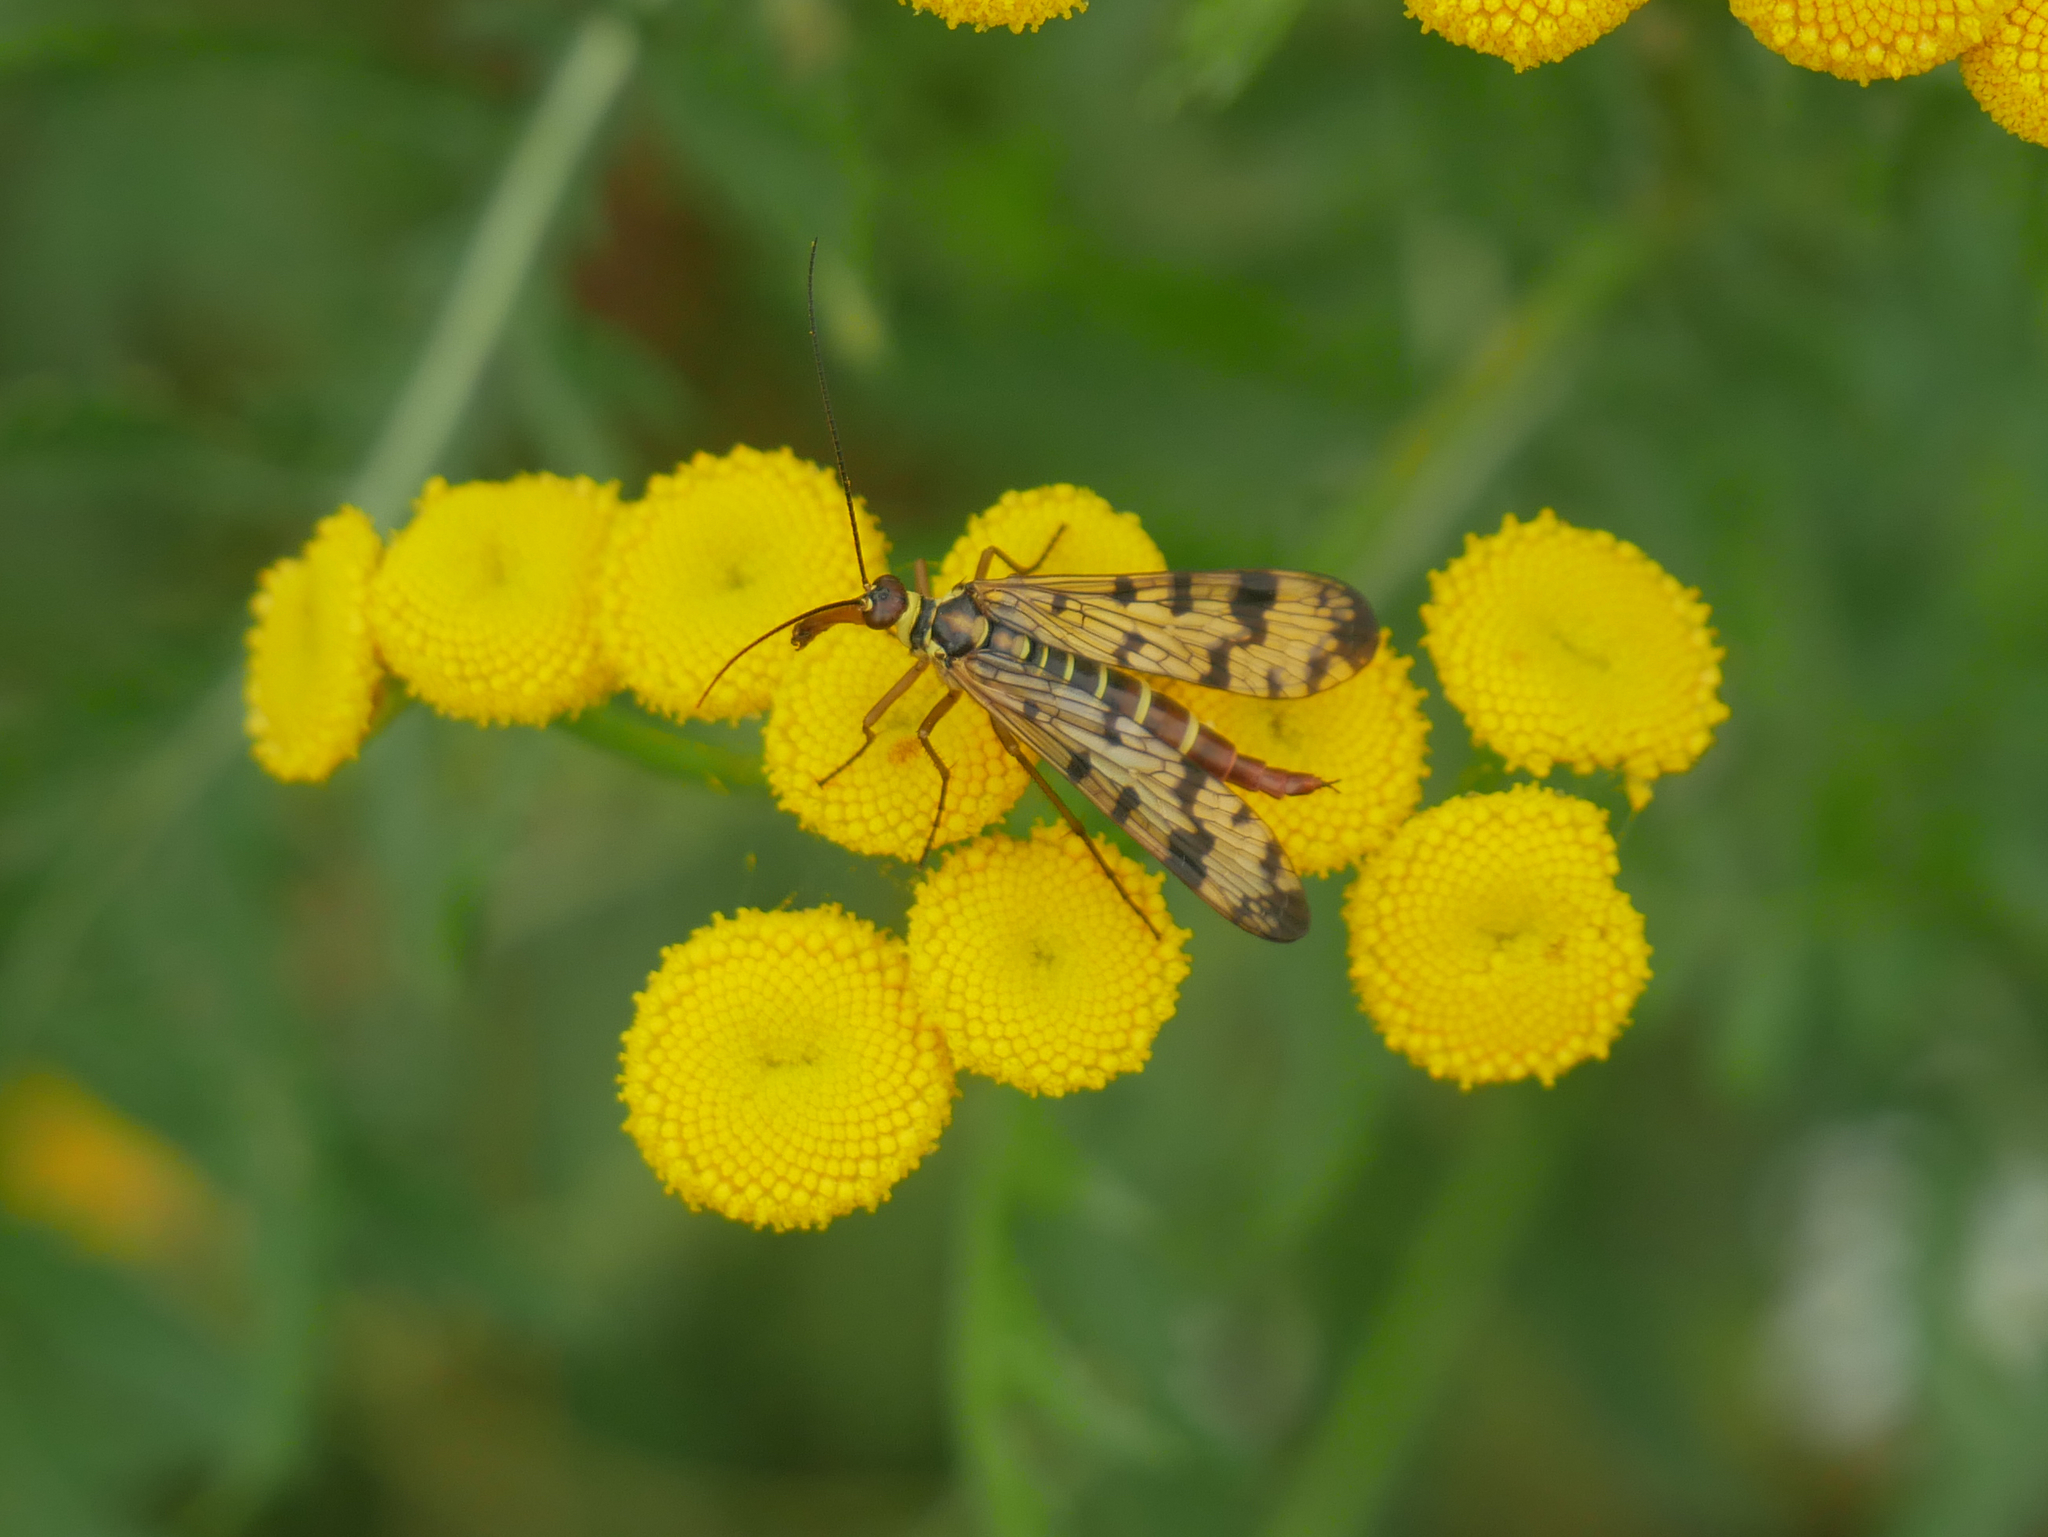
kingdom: Animalia
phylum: Arthropoda
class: Insecta
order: Mecoptera
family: Panorpidae
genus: Panorpa
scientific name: Panorpa communis
